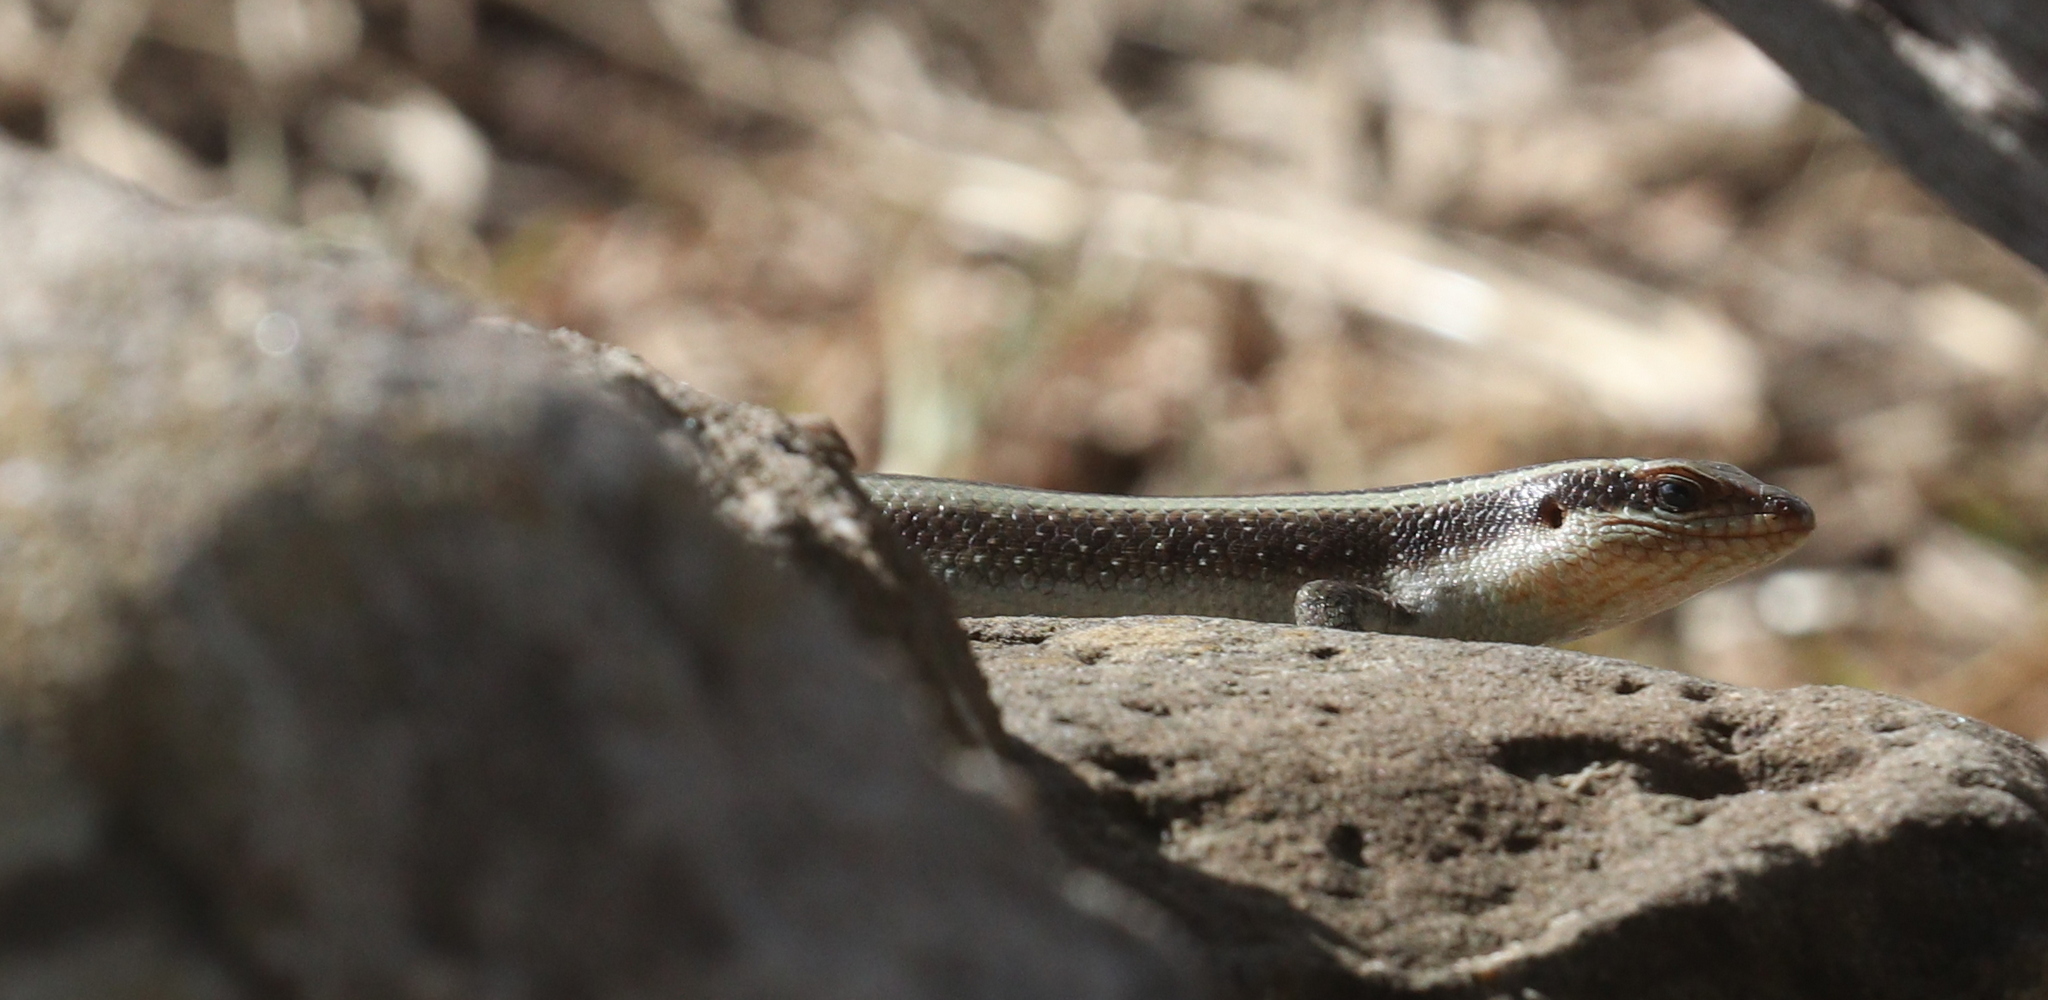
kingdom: Animalia
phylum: Chordata
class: Squamata
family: Scincidae
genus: Trachylepis
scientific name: Trachylepis striata
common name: African striped mabuya
